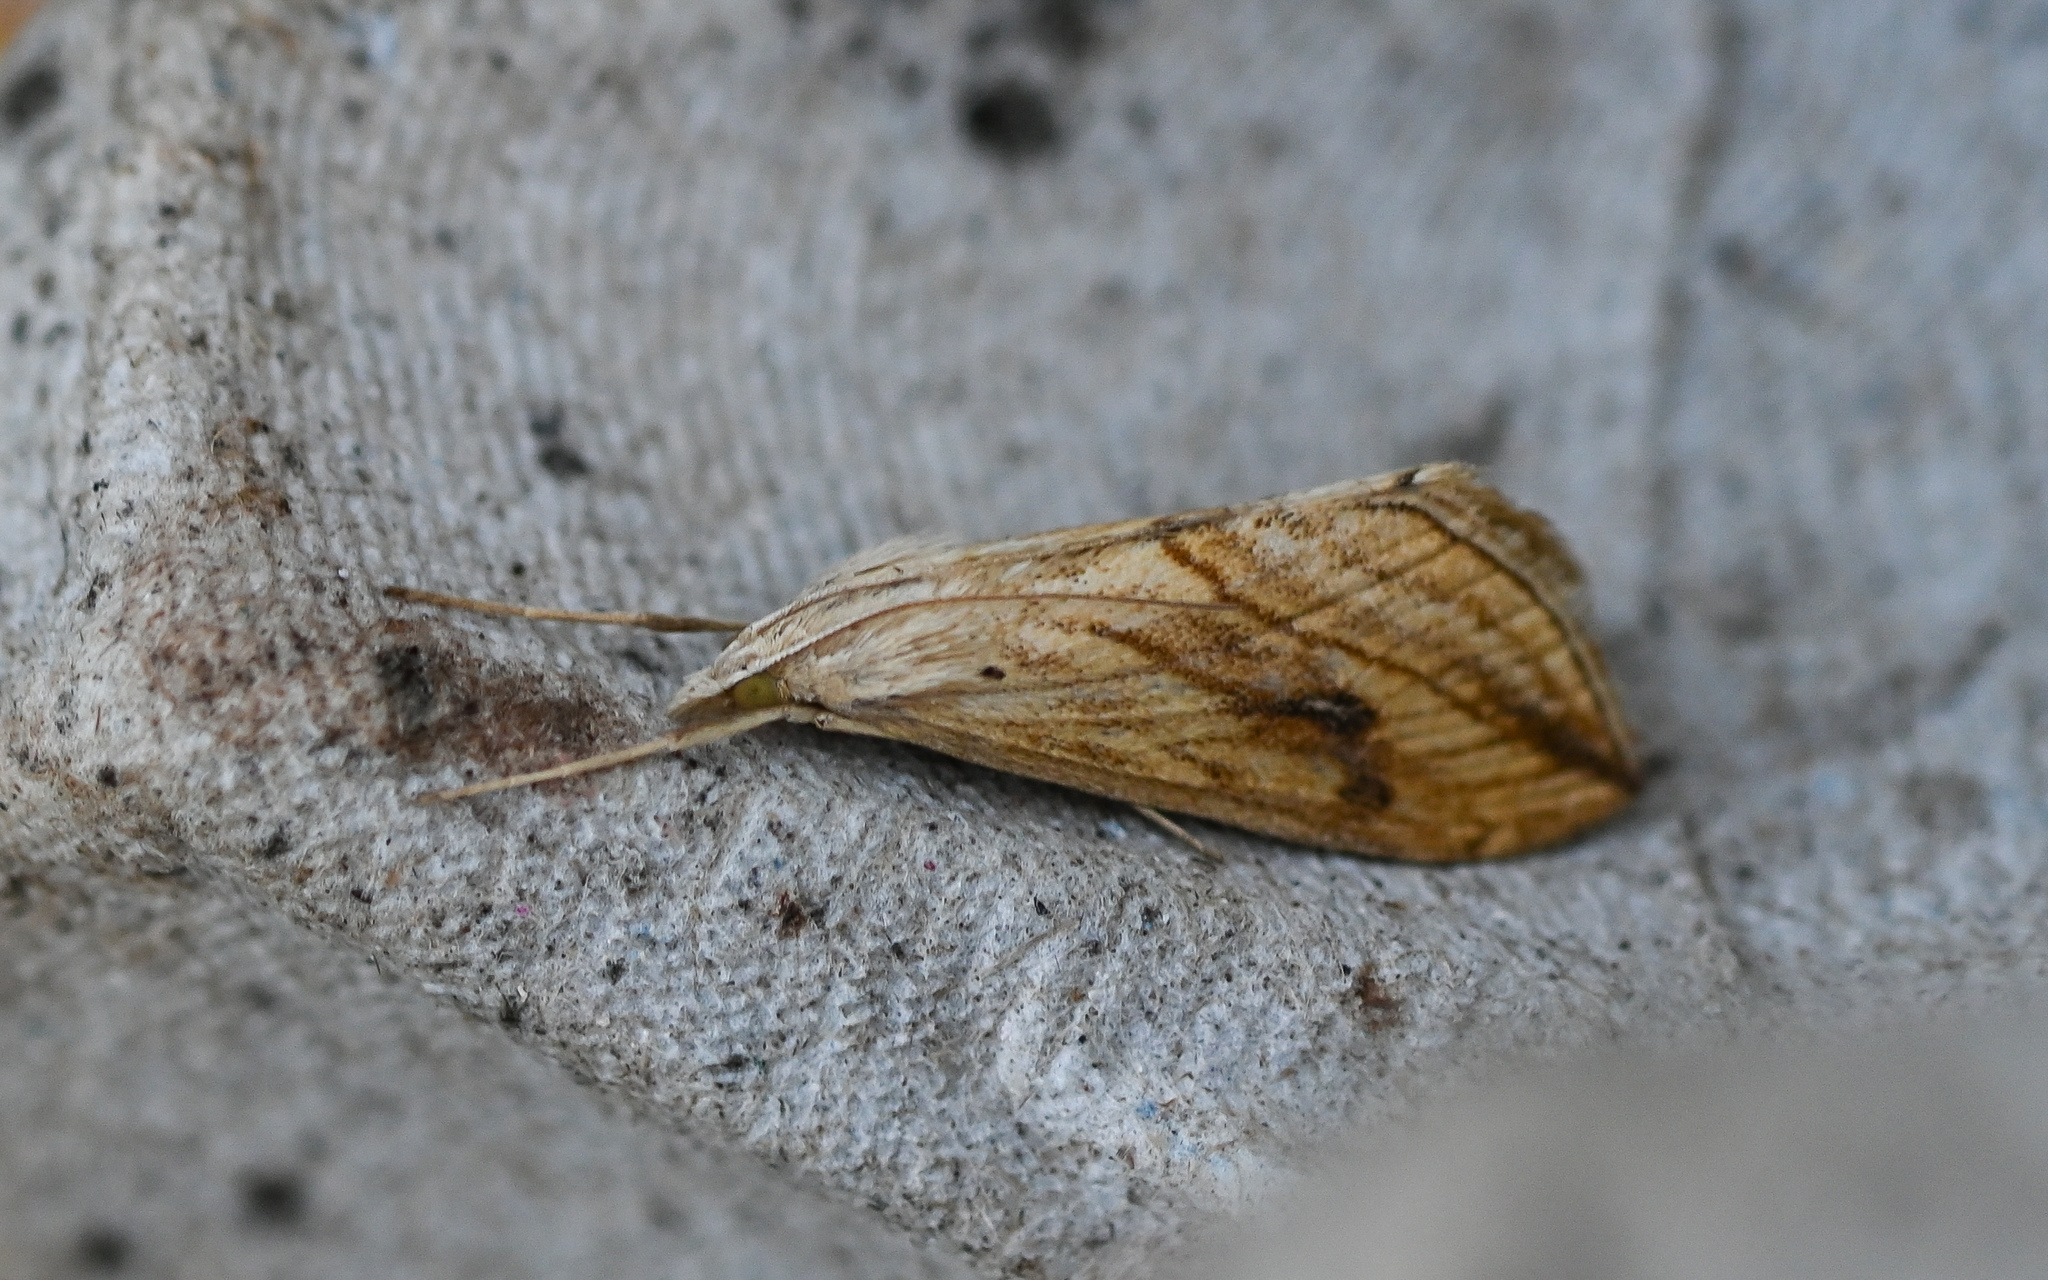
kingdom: Animalia
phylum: Arthropoda
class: Insecta
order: Lepidoptera
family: Crambidae
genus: Evergestis
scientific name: Evergestis forficalis
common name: Garden pebble
